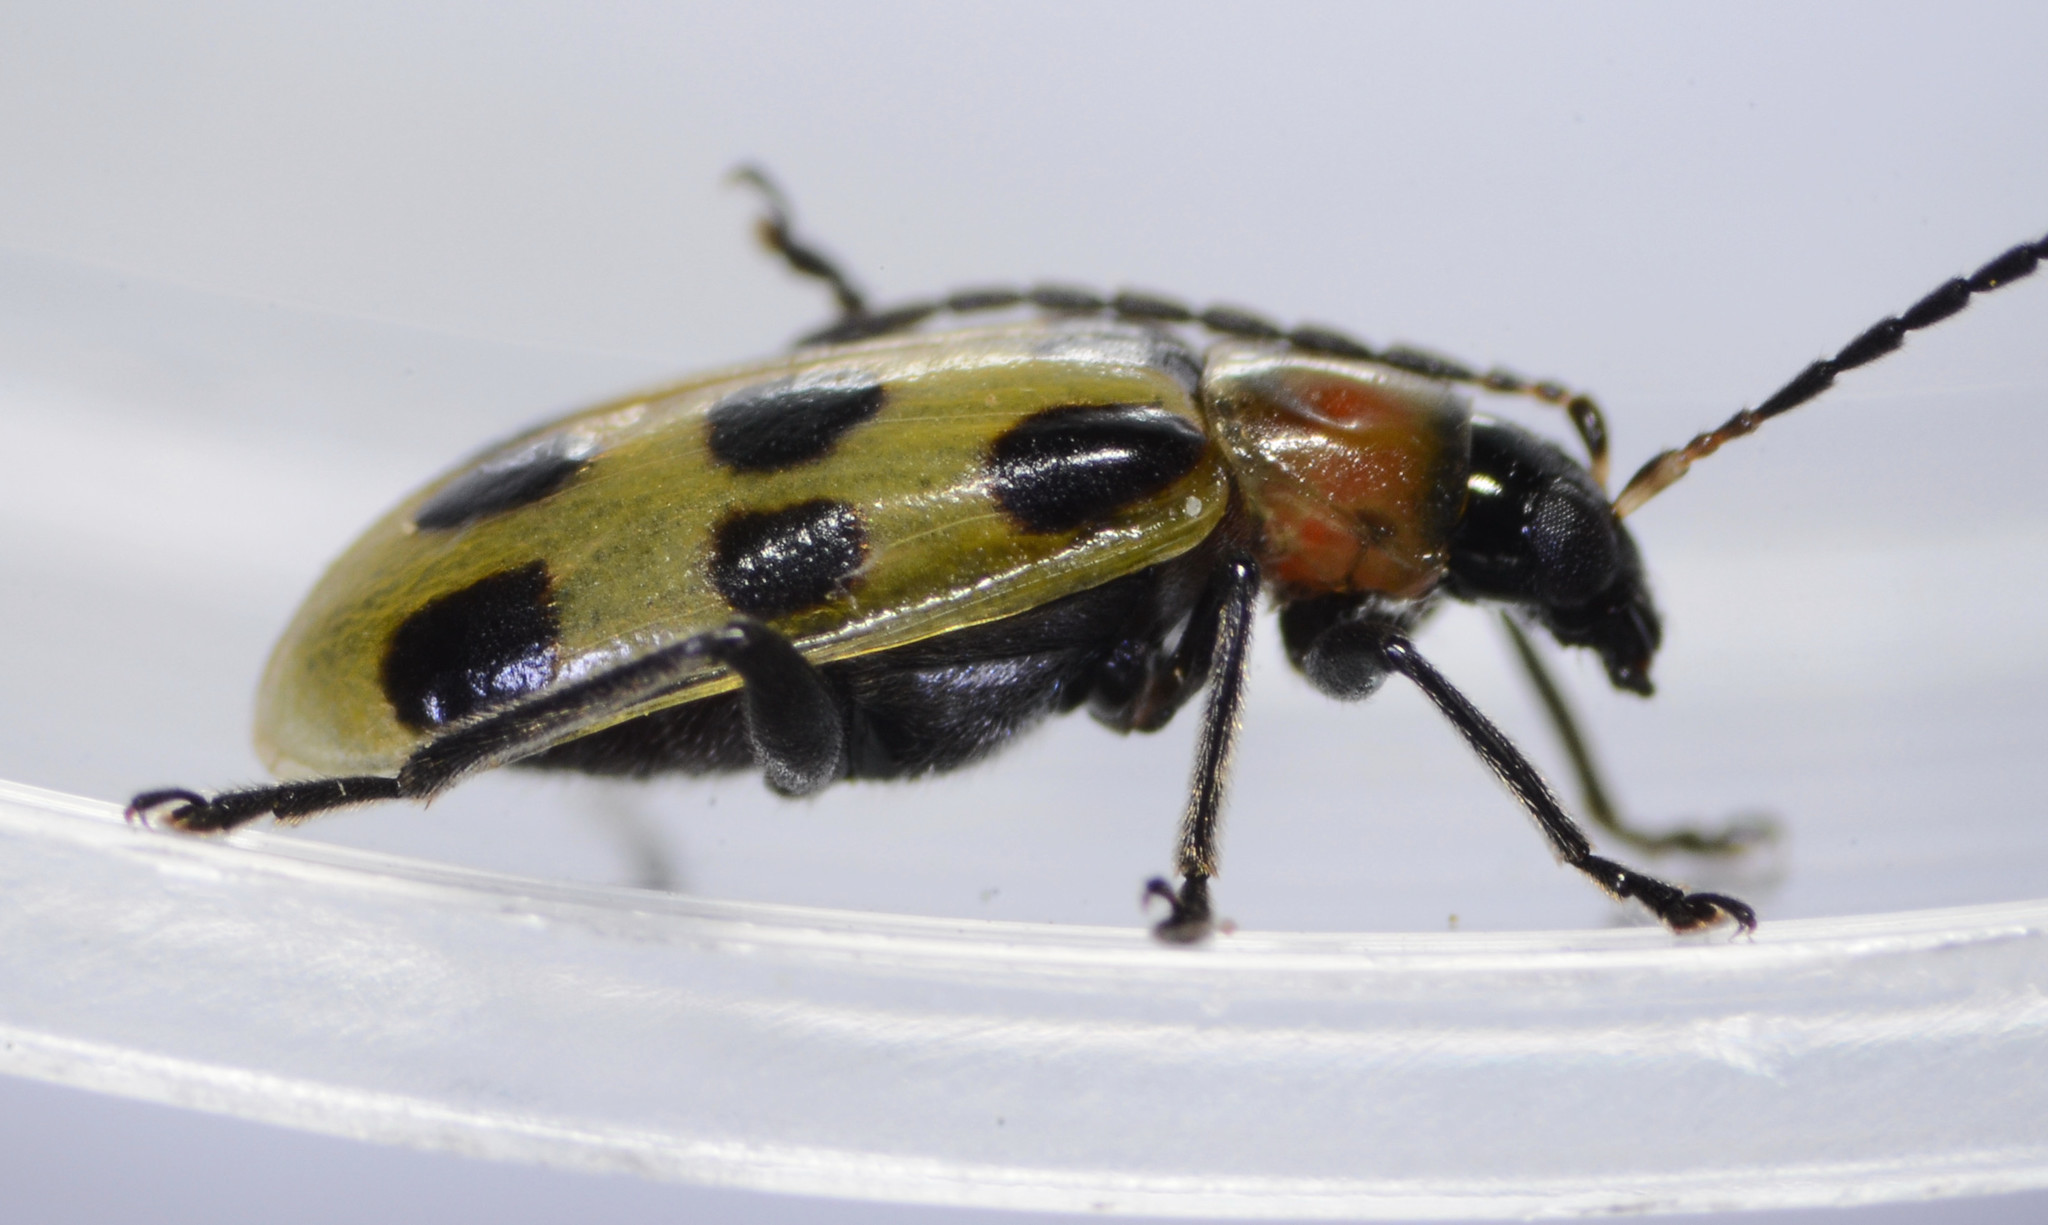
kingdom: Animalia
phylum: Arthropoda
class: Insecta
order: Coleoptera
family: Chrysomelidae
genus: Diabrotica
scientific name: Diabrotica undecimpunctata
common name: Spotted cucumber beetle
